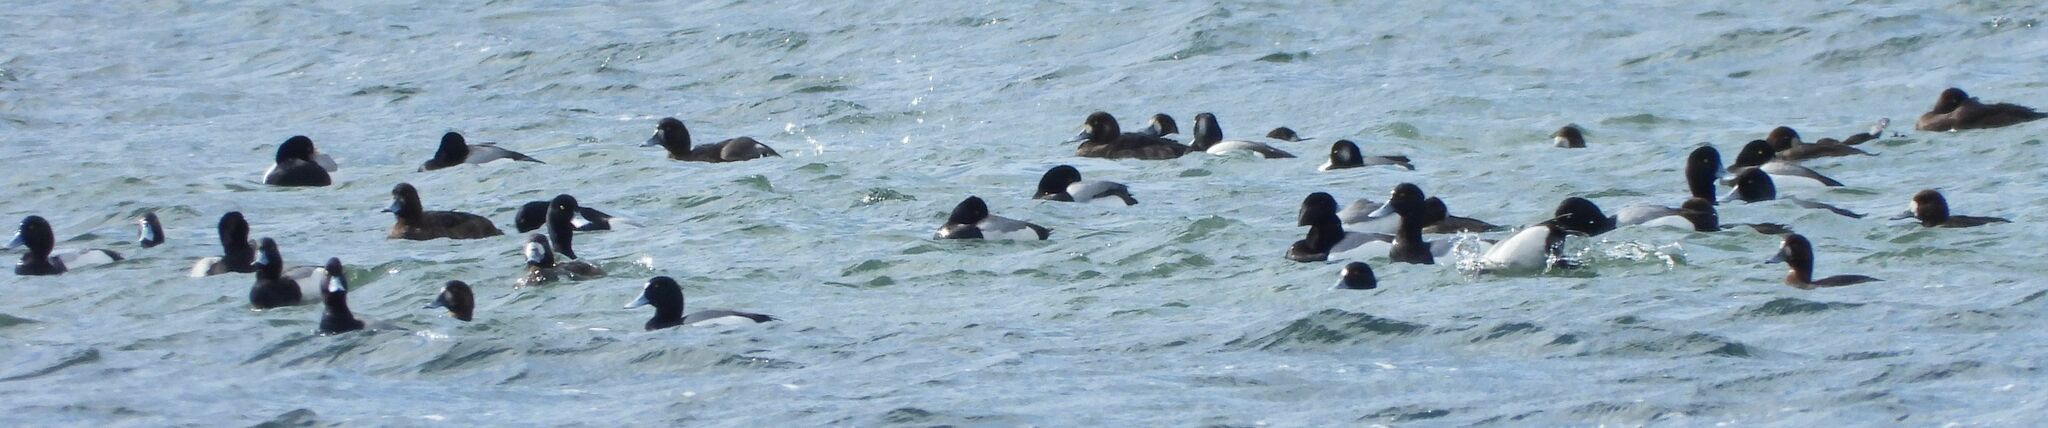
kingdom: Animalia
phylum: Chordata
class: Aves
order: Anseriformes
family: Anatidae
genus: Aythya
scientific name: Aythya marila
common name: Greater scaup
